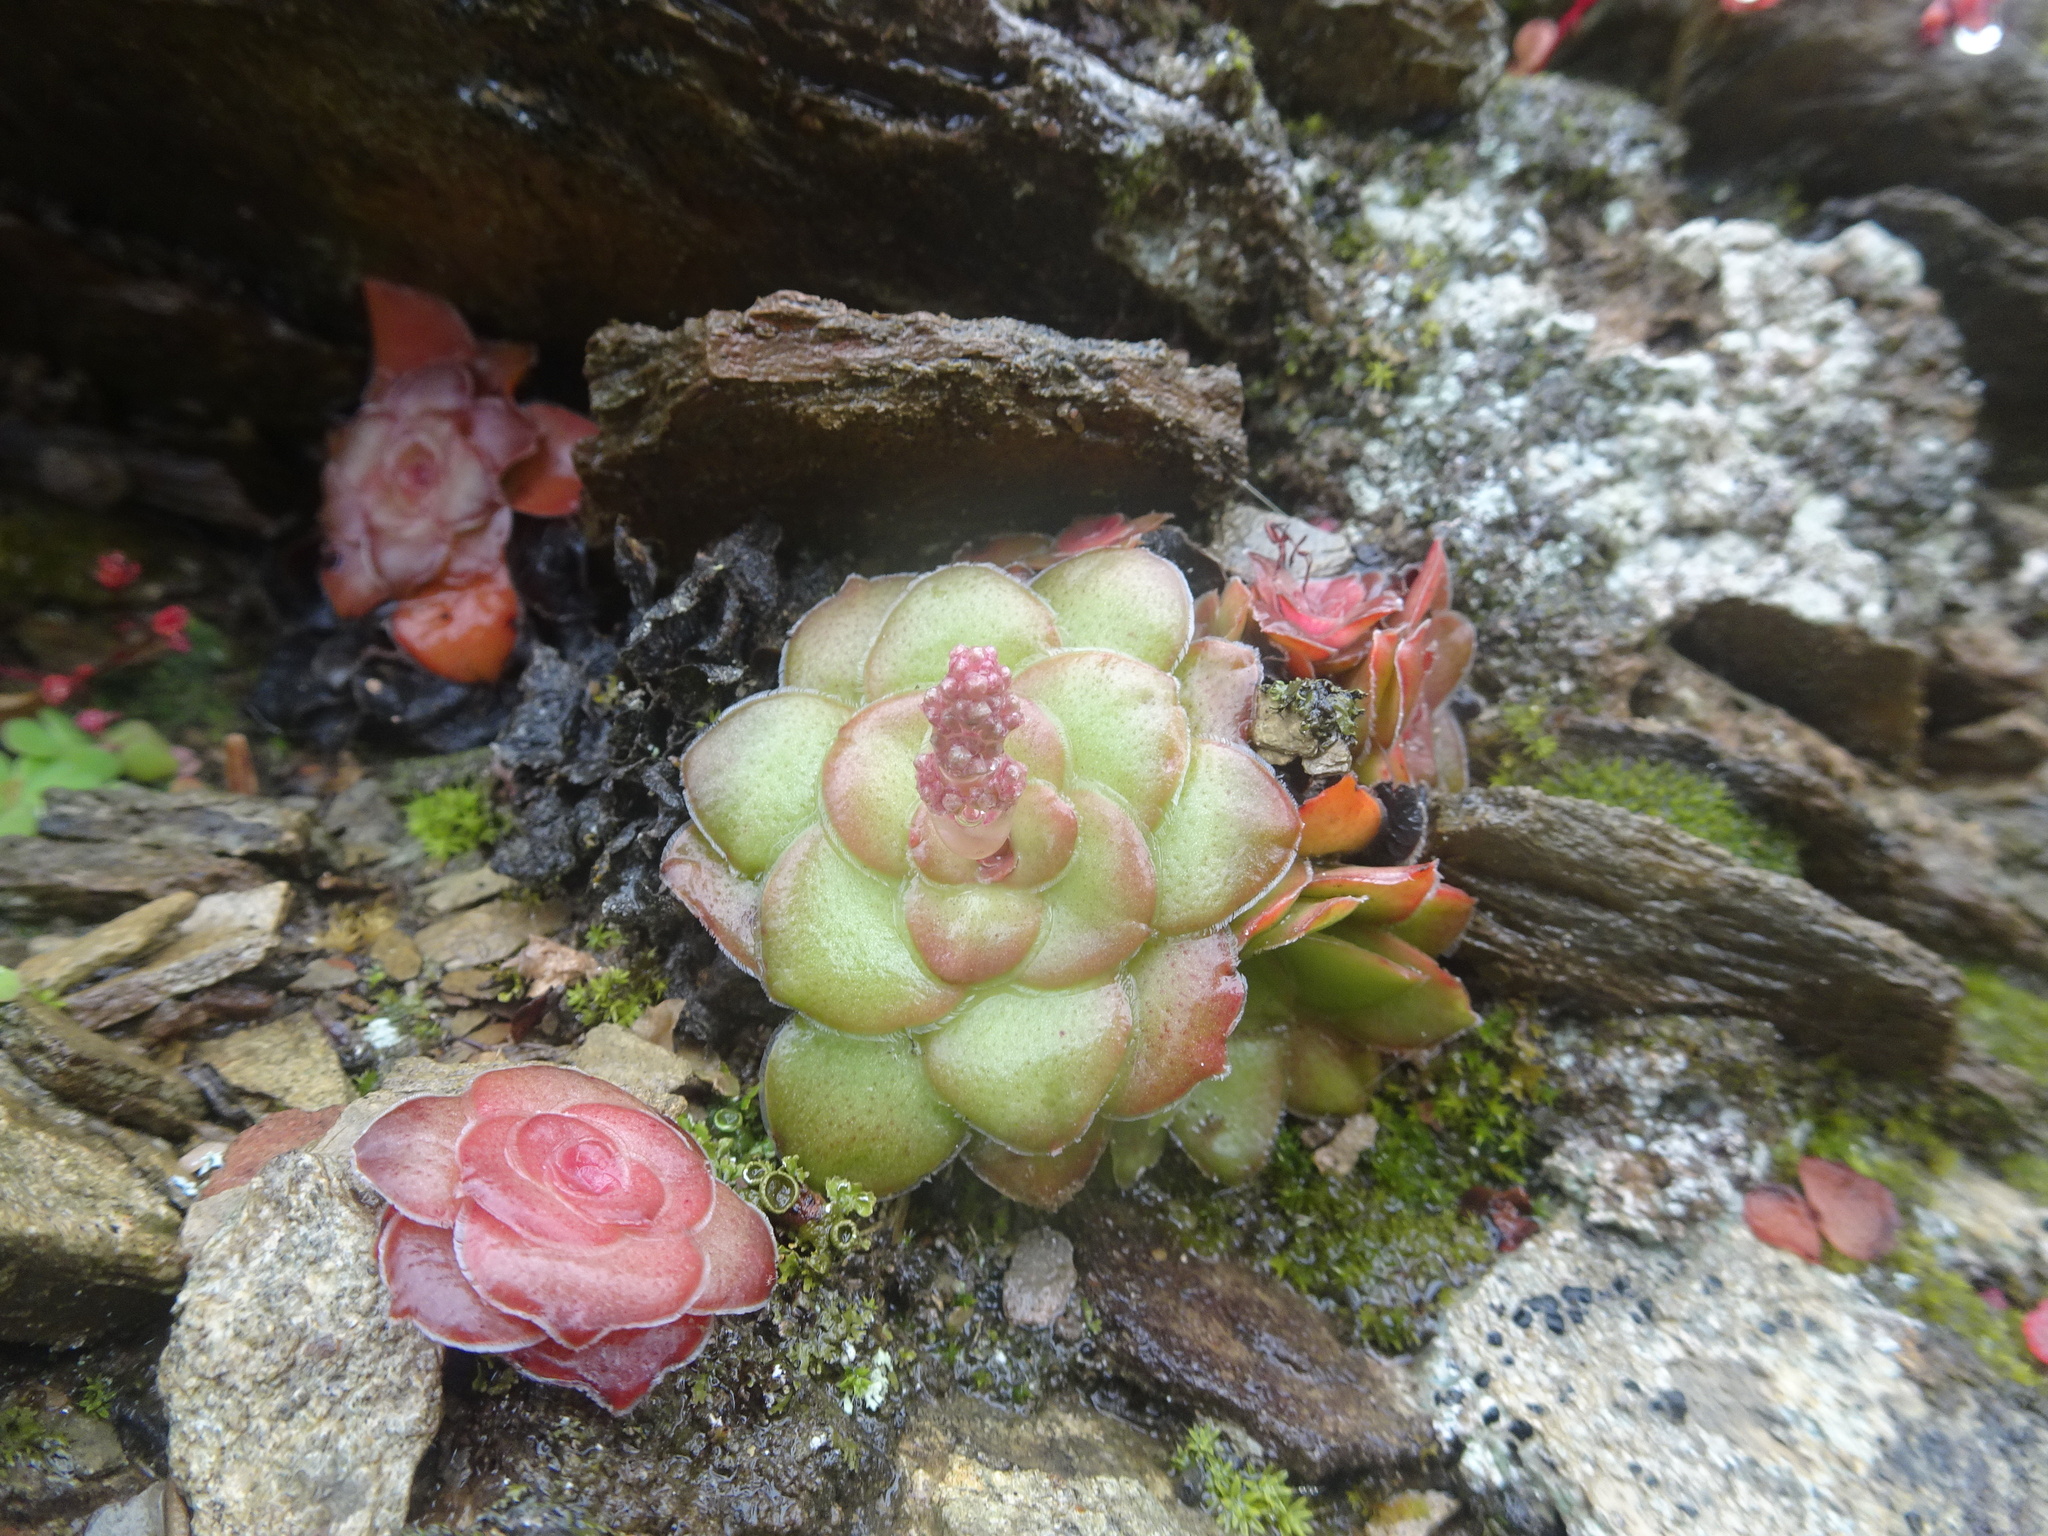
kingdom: Plantae
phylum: Tracheophyta
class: Magnoliopsida
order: Saxifragales
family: Crassulaceae
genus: Crassula
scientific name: Crassula orbicularis
